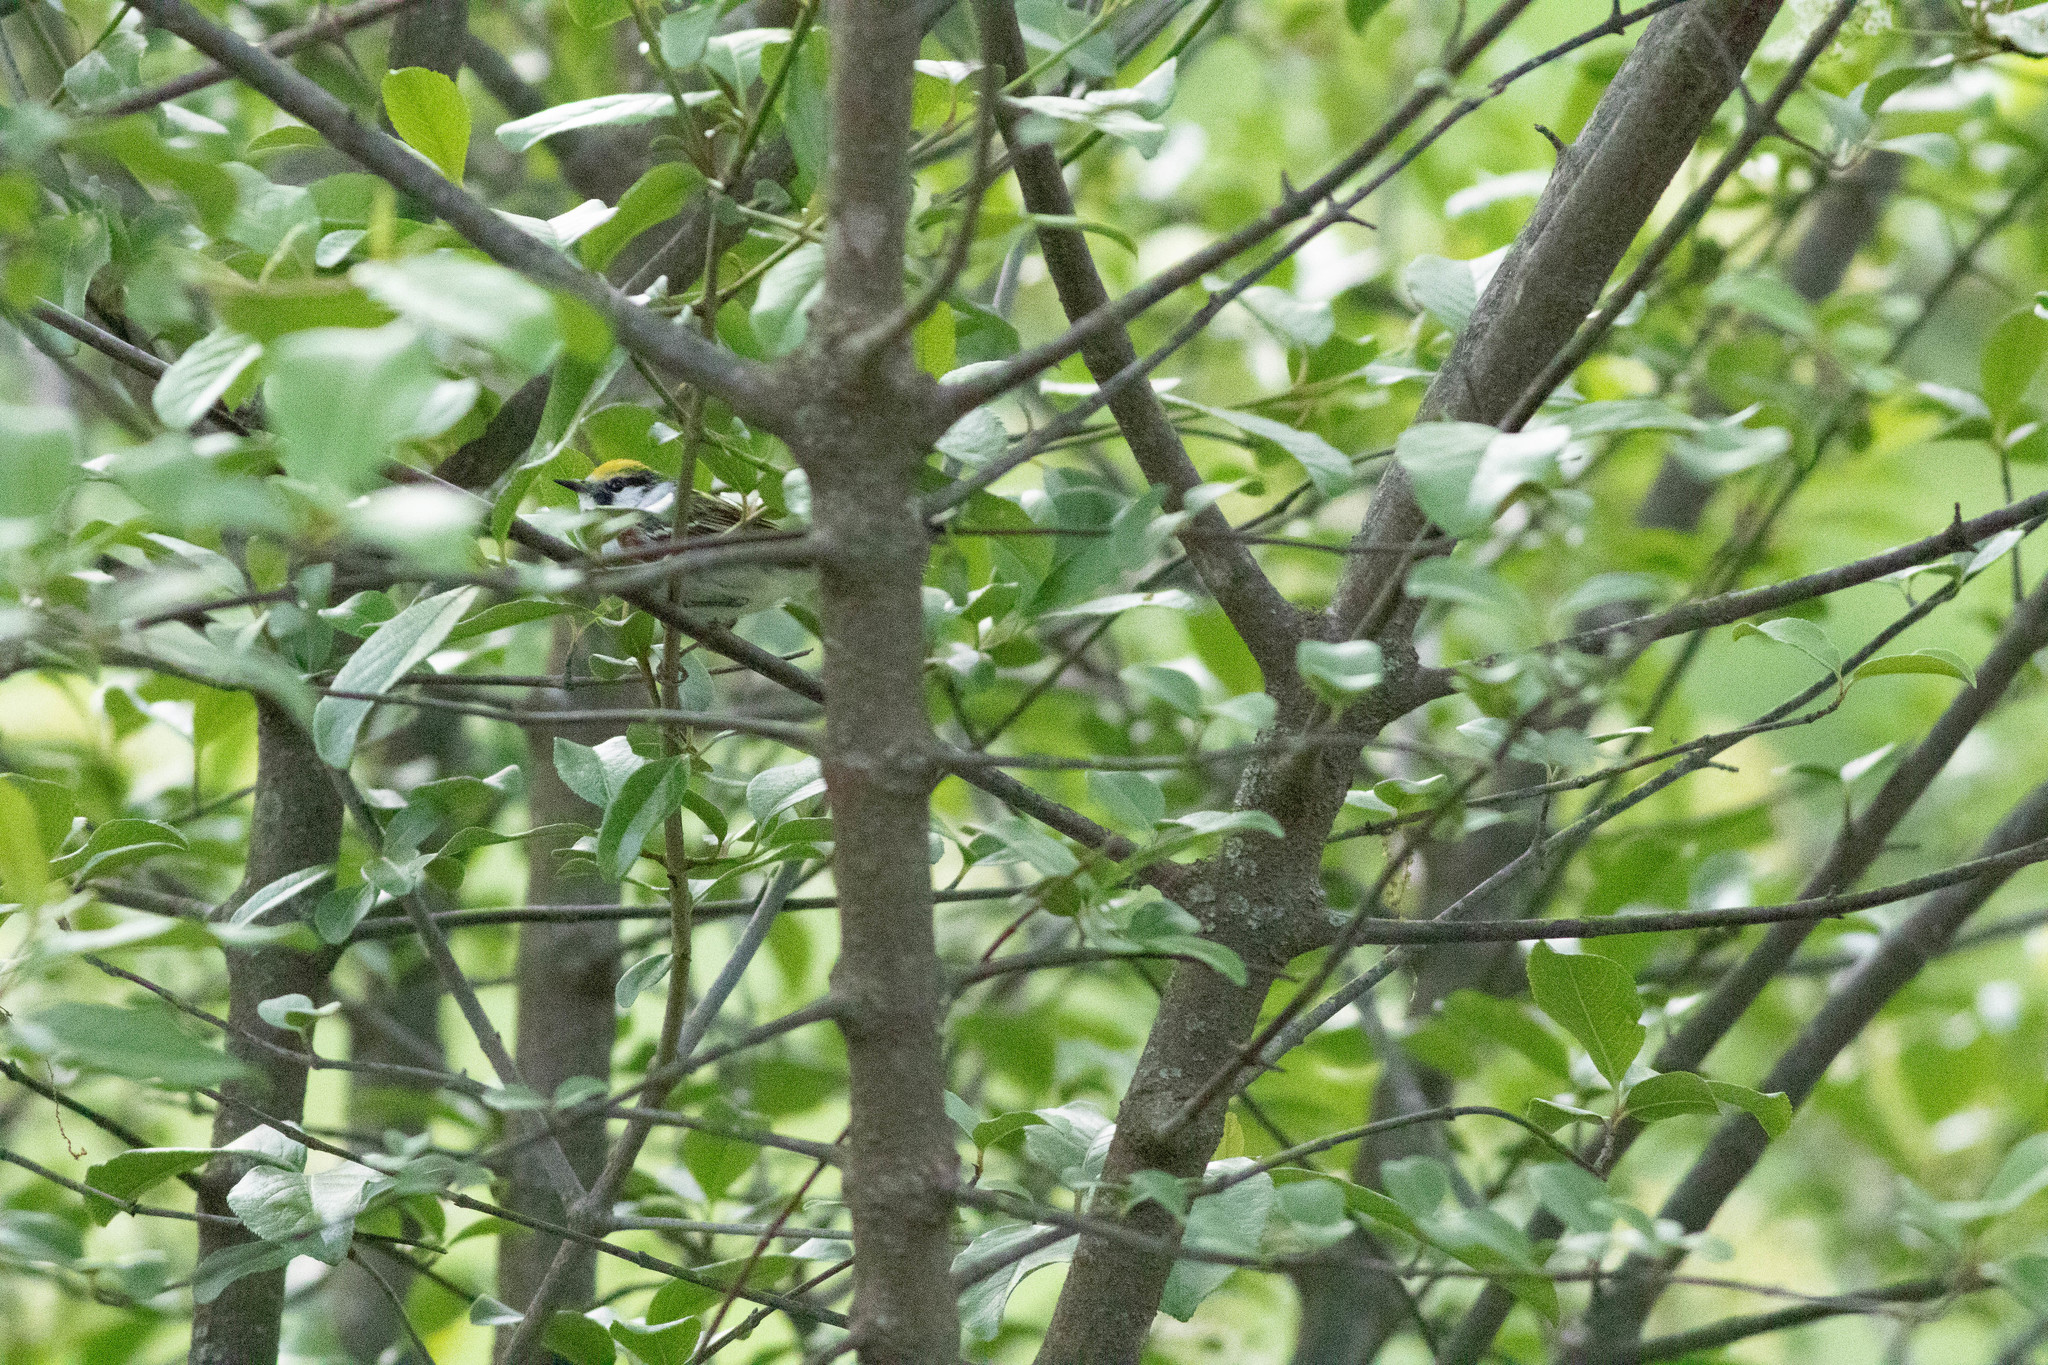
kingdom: Animalia
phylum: Chordata
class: Aves
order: Passeriformes
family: Parulidae
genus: Setophaga
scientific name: Setophaga pensylvanica
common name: Chestnut-sided warbler
